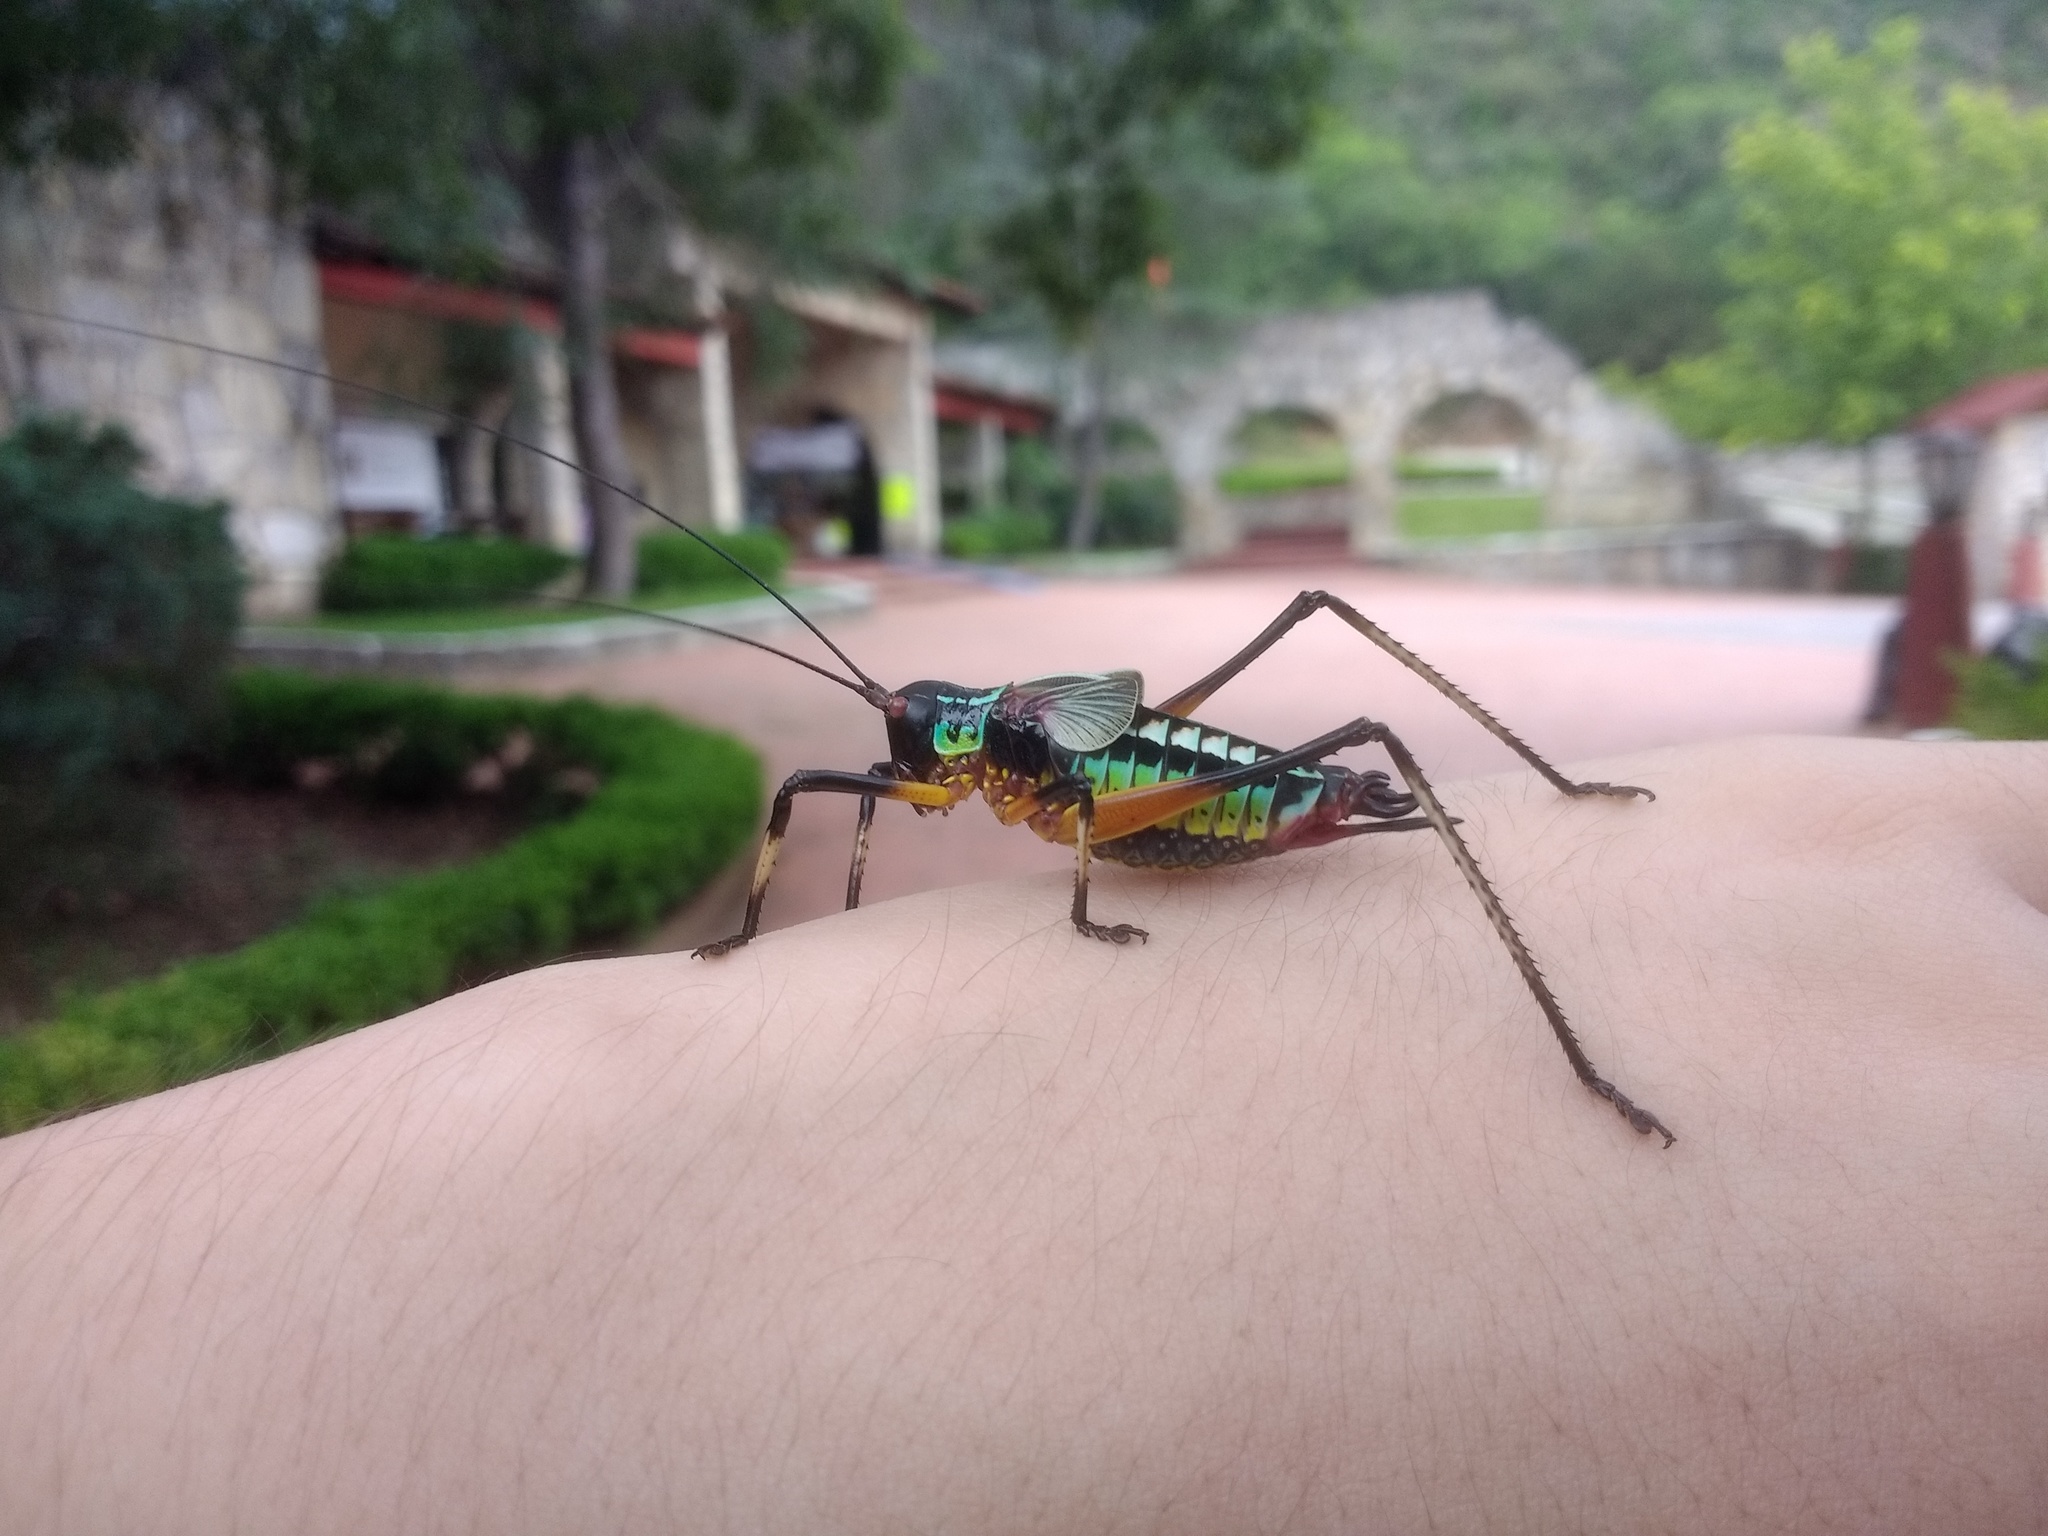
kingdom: Animalia
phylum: Arthropoda
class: Insecta
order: Orthoptera
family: Tettigoniidae
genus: Pterophylla
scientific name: Pterophylla beltrani
